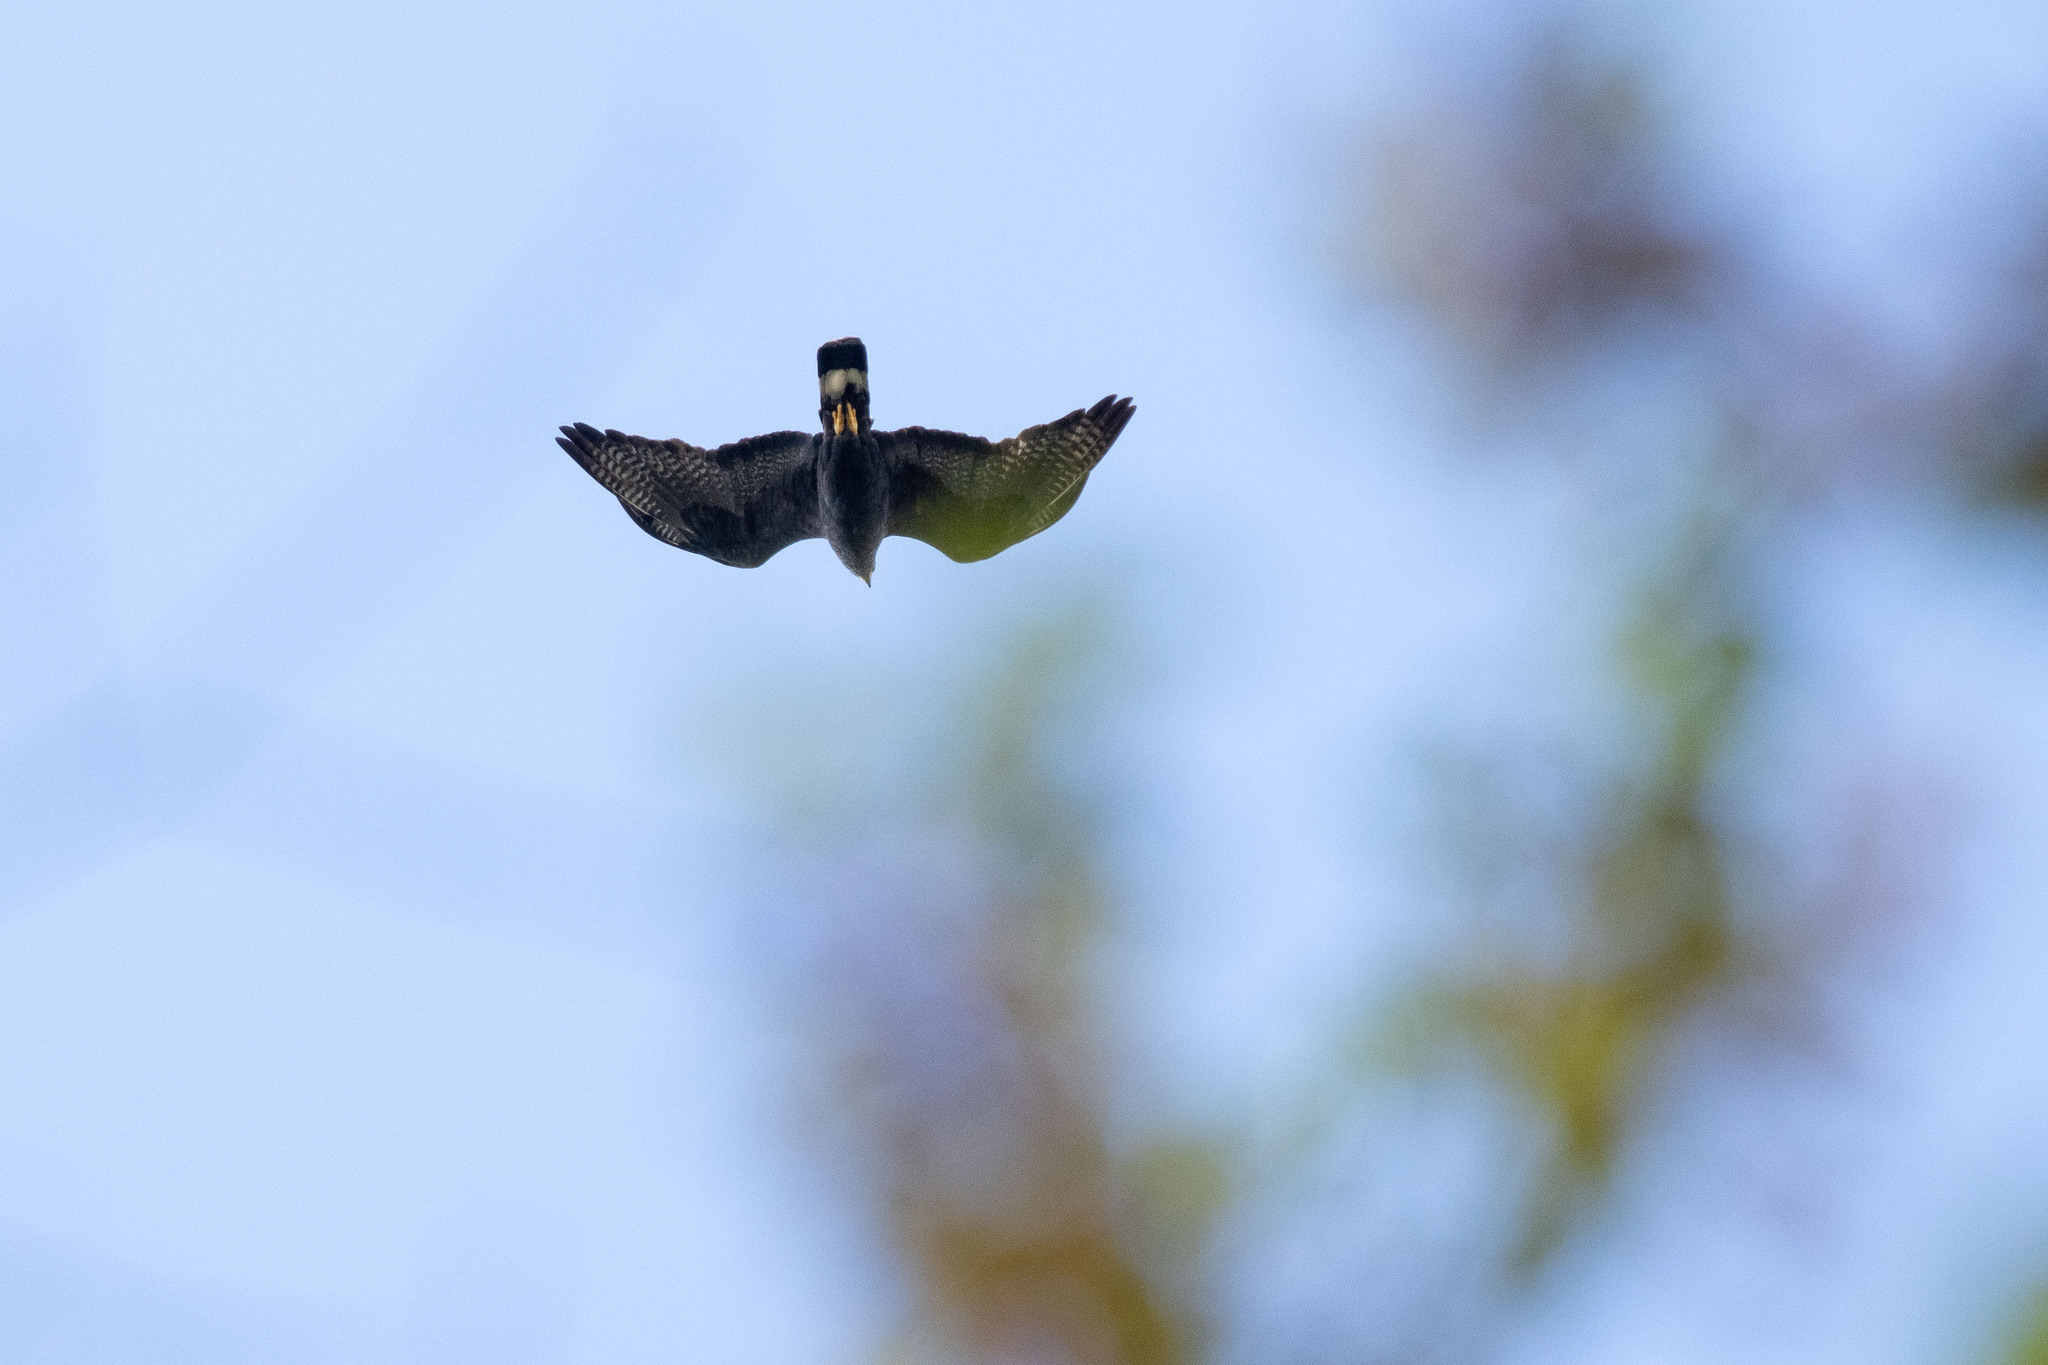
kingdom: Animalia
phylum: Chordata
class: Aves
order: Accipitriformes
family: Accipitridae
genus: Buteo
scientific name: Buteo albonotatus
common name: Zone-tailed hawk
